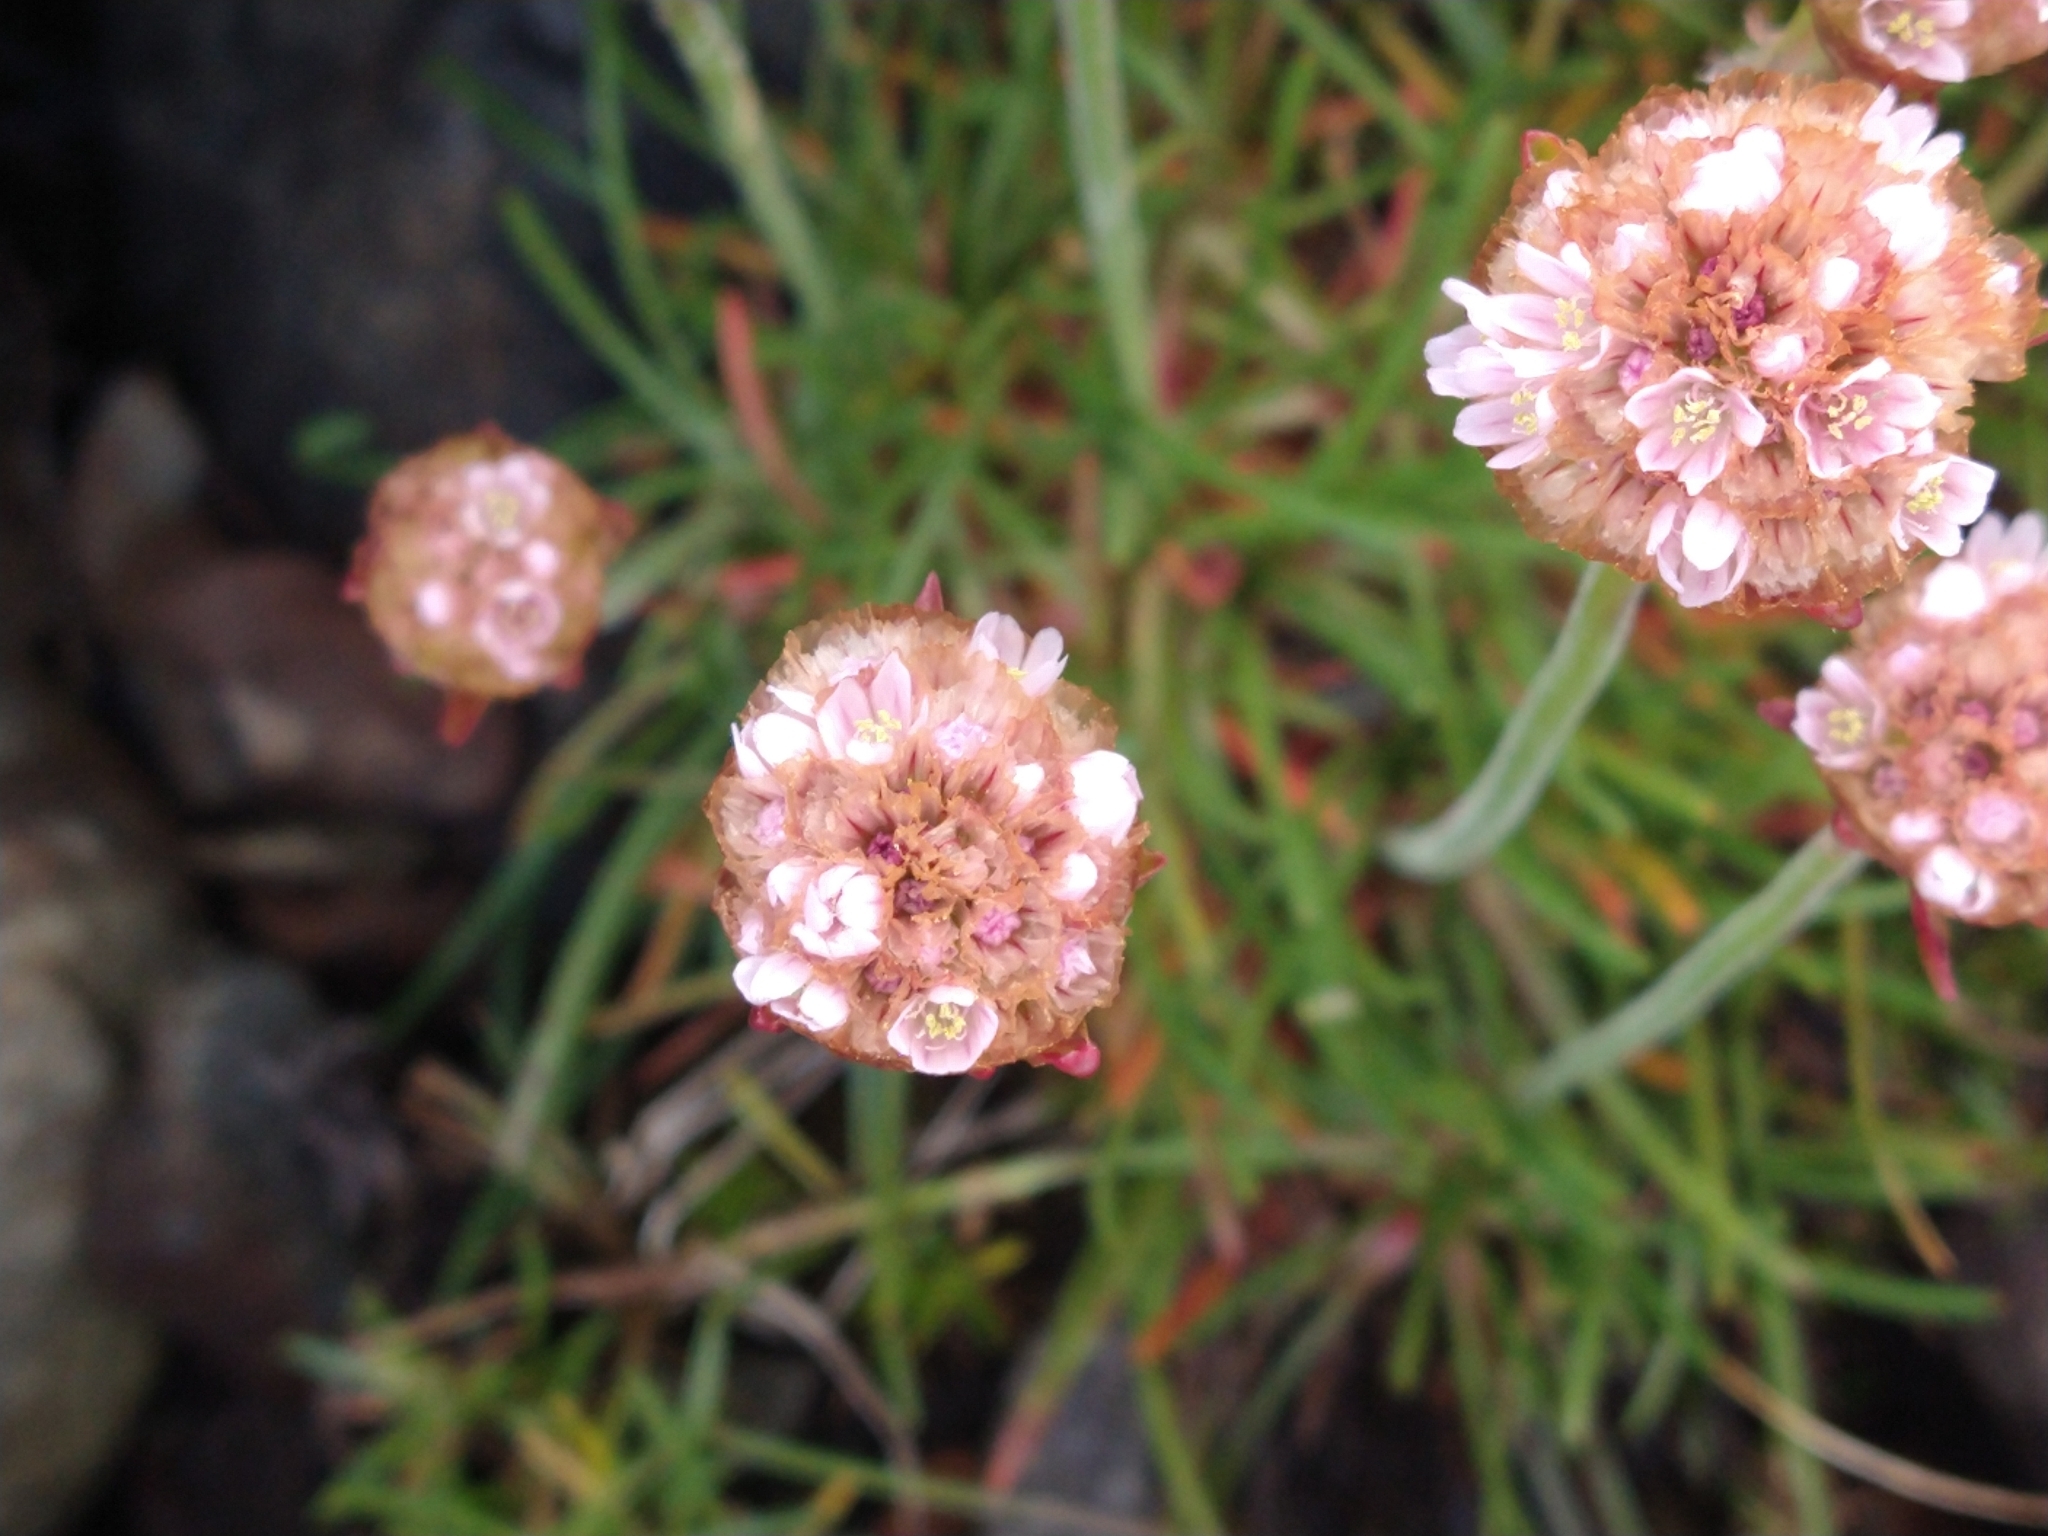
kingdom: Plantae
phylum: Tracheophyta
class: Magnoliopsida
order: Caryophyllales
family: Plumbaginaceae
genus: Armeria
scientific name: Armeria curvifolia
